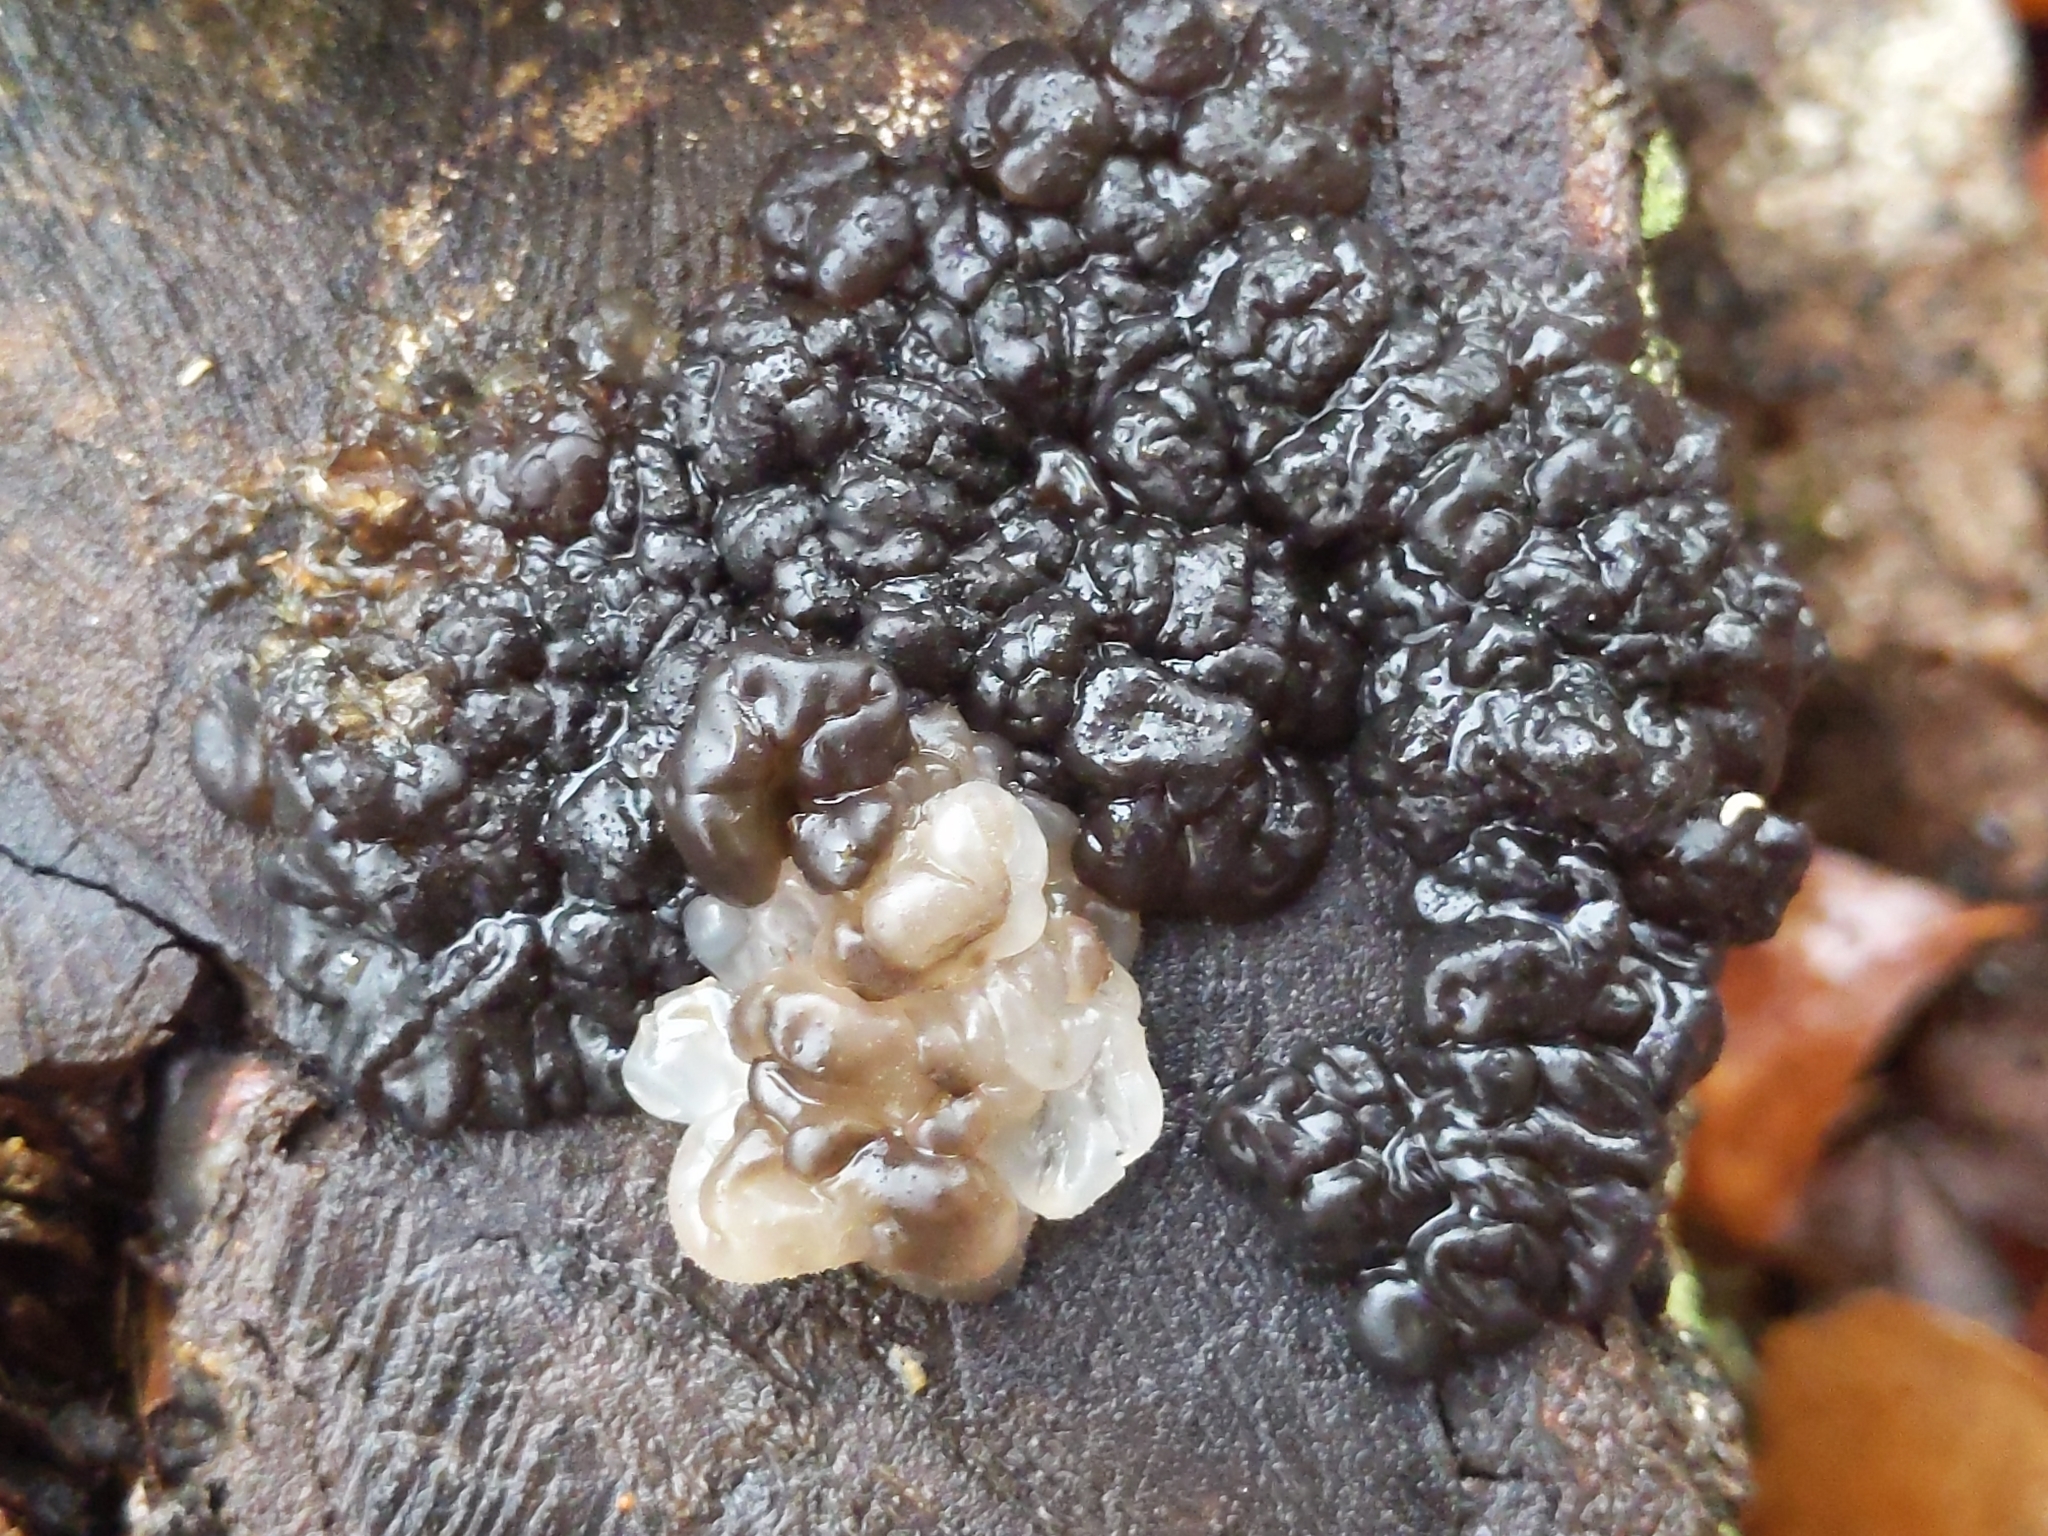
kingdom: Fungi
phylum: Basidiomycota
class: Agaricomycetes
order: Auriculariales
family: Auriculariaceae
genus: Exidia
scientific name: Exidia glandulosa
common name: Witches' butter
